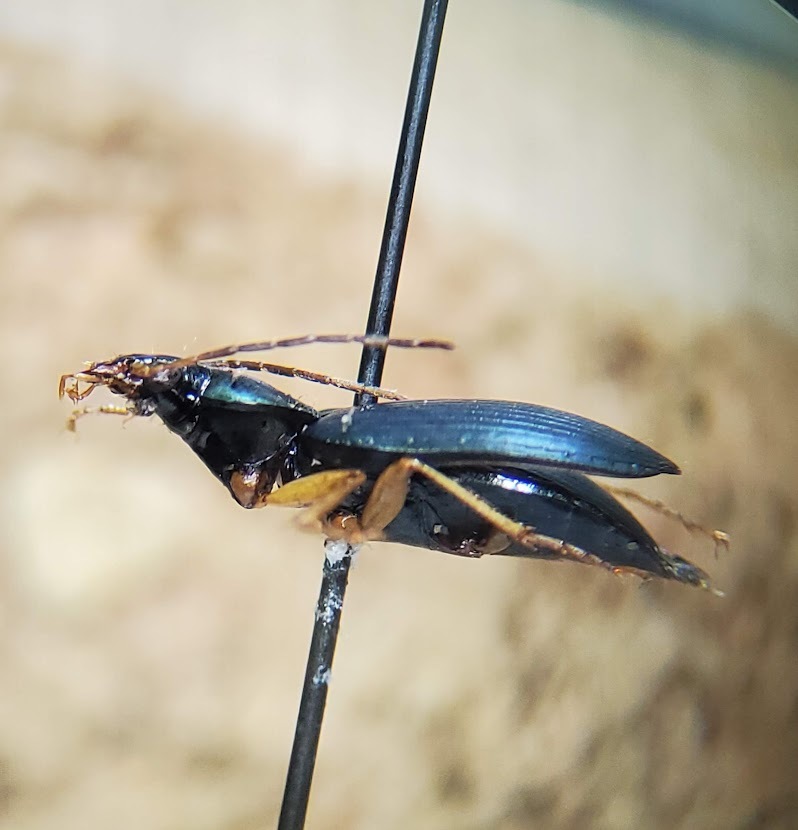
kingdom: Animalia
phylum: Arthropoda
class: Insecta
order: Coleoptera
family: Carabidae
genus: Agonum
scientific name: Agonum extensicolle
